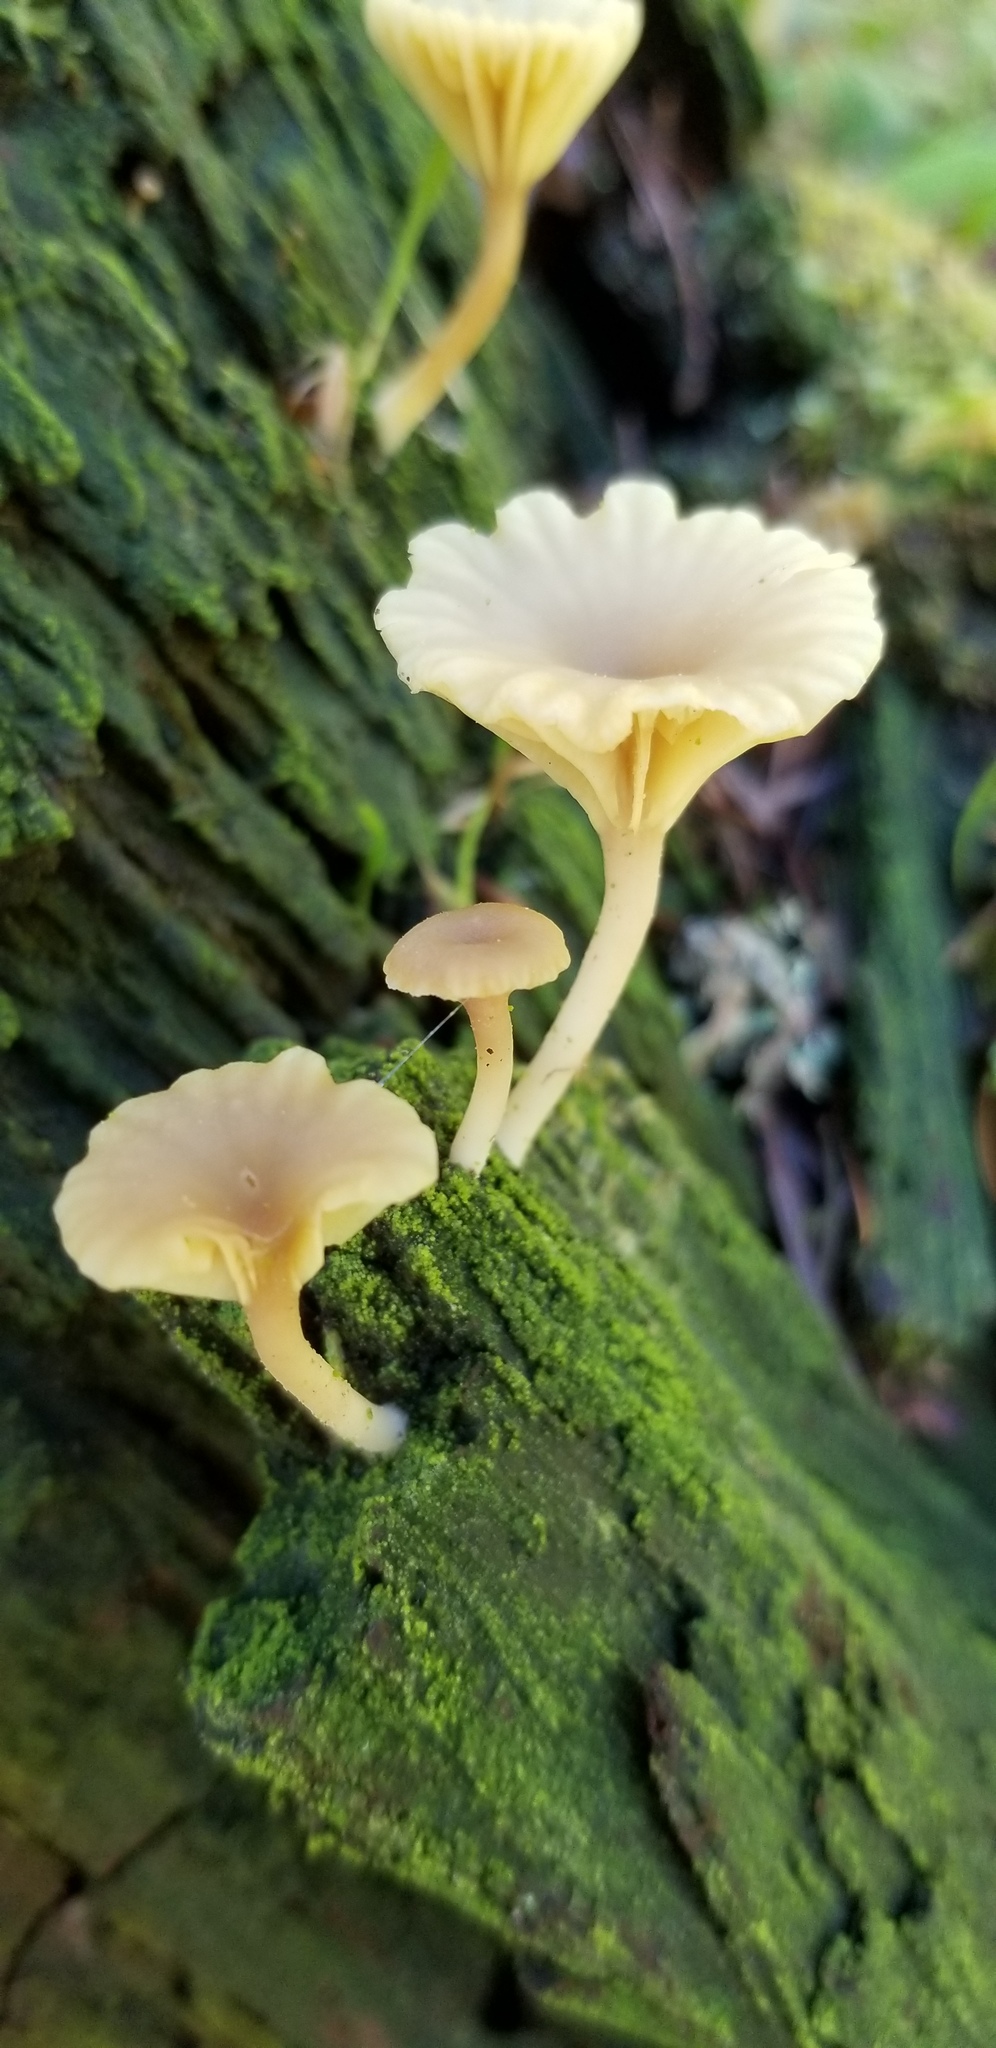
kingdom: Fungi
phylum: Basidiomycota
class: Agaricomycetes
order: Agaricales
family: Hygrophoraceae
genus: Lichenomphalia
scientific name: Lichenomphalia
